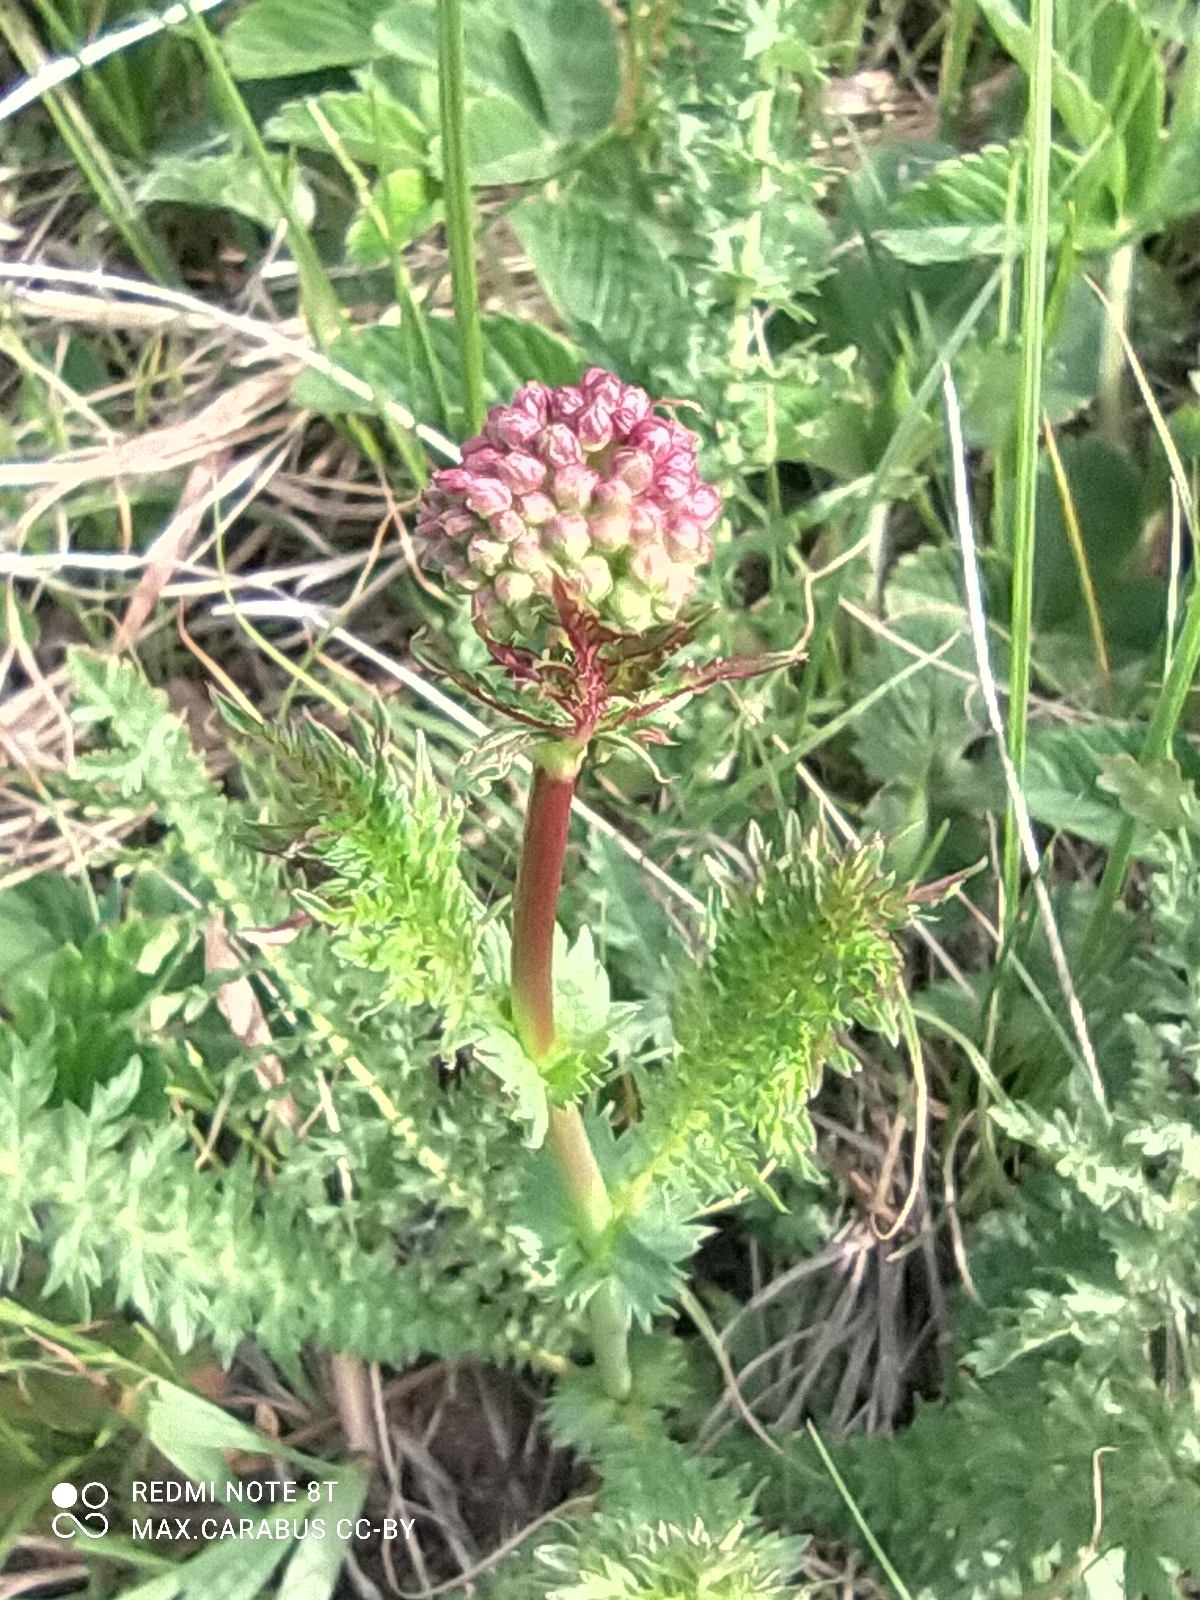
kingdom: Plantae
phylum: Tracheophyta
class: Magnoliopsida
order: Rosales
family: Rosaceae
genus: Filipendula
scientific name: Filipendula vulgaris
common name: Dropwort
